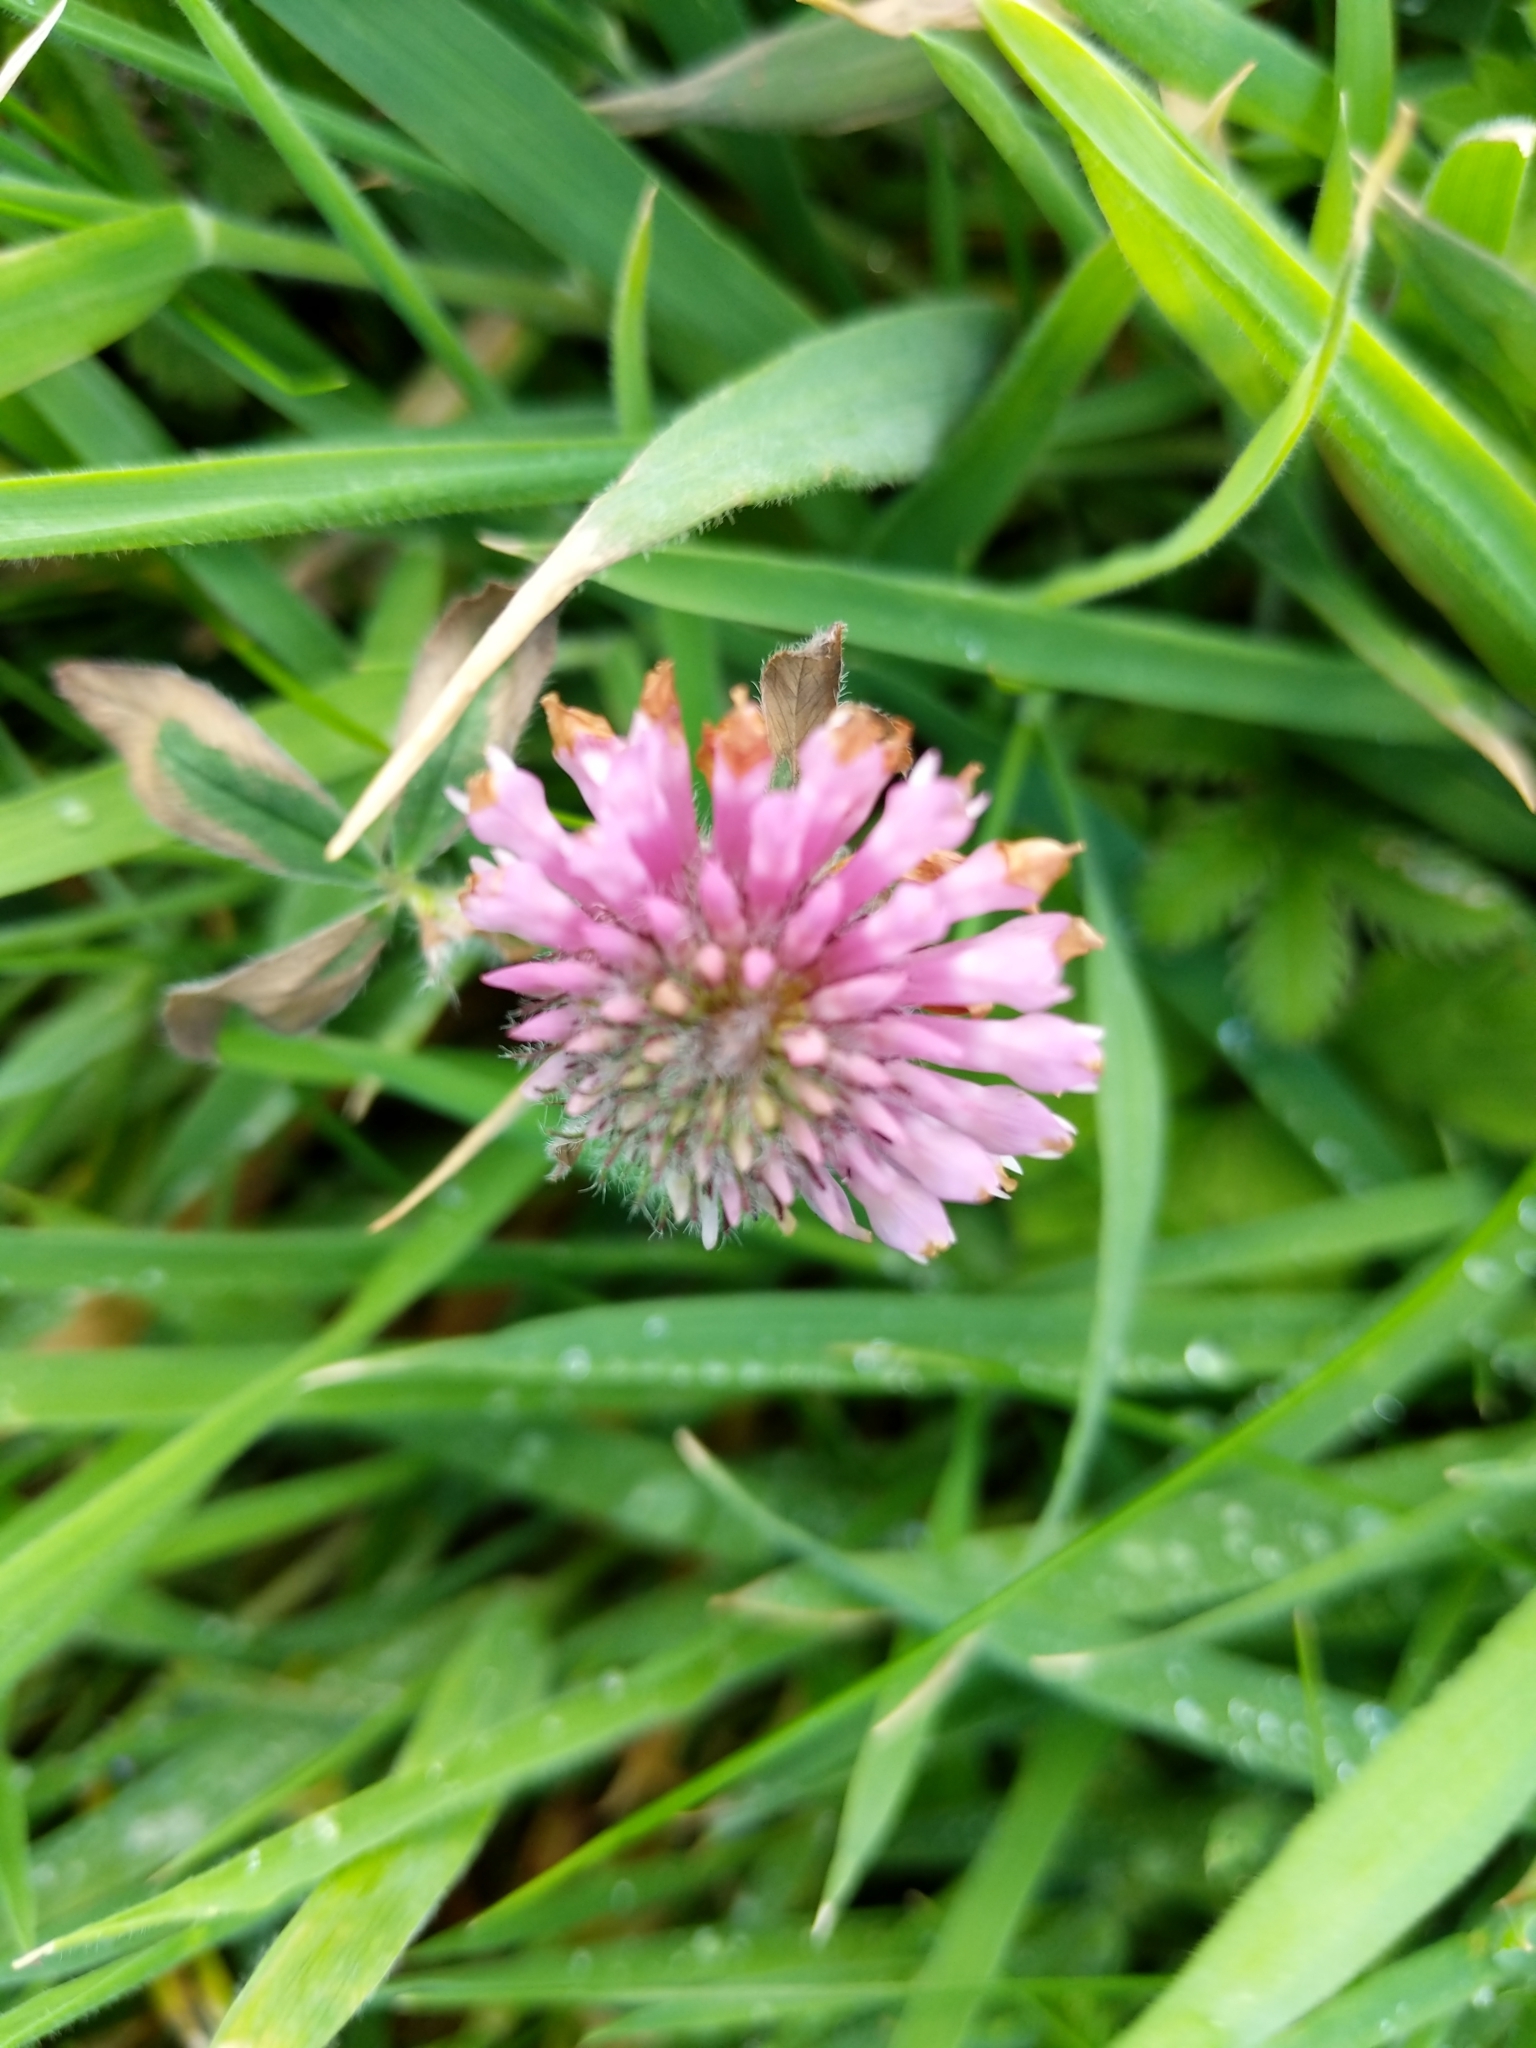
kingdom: Plantae
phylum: Tracheophyta
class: Magnoliopsida
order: Fabales
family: Fabaceae
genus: Trifolium
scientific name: Trifolium pratense
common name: Red clover
